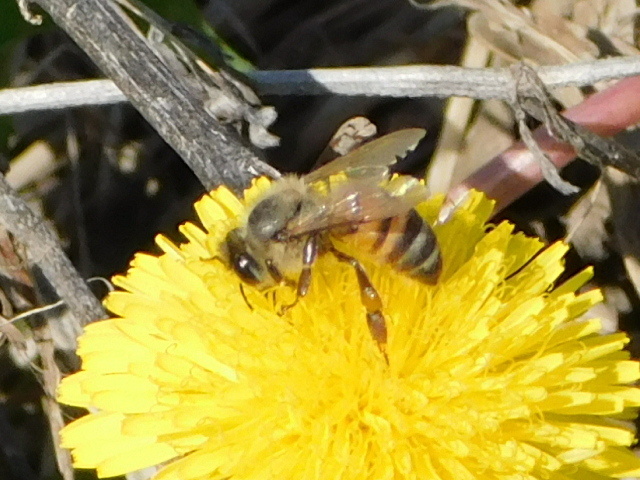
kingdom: Animalia
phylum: Arthropoda
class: Insecta
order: Hymenoptera
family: Apidae
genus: Apis
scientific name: Apis mellifera
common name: Honey bee
